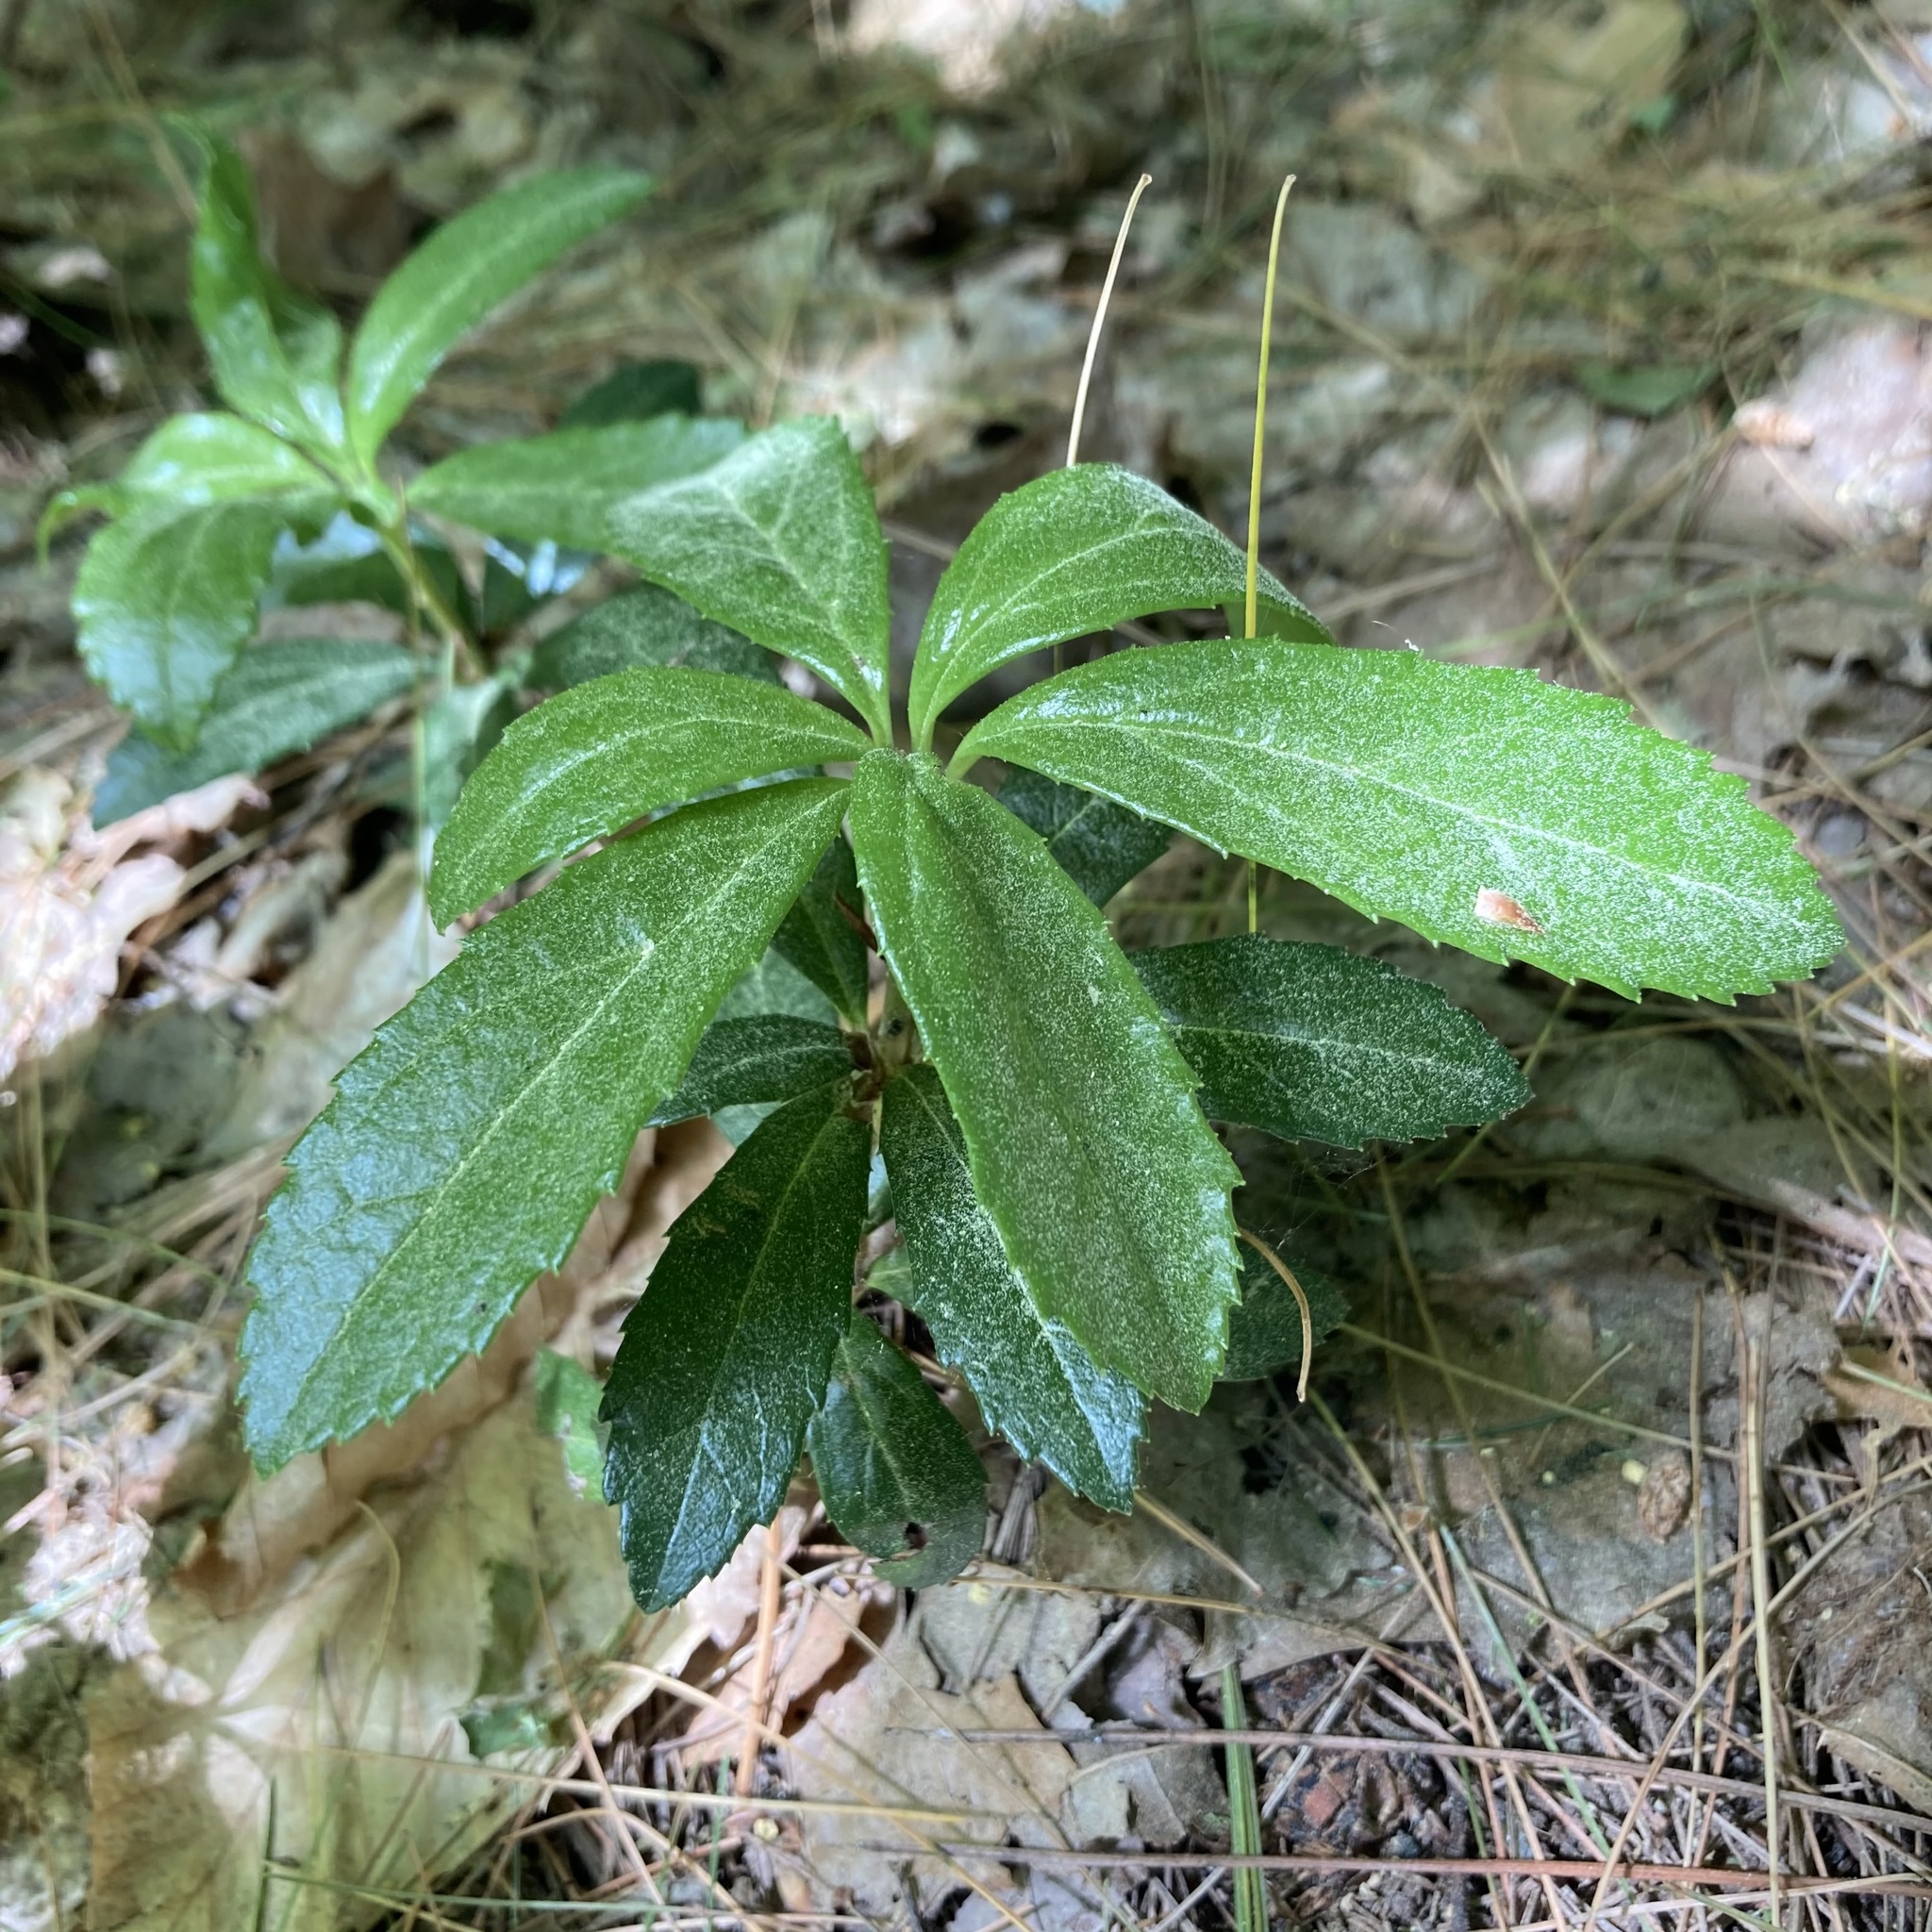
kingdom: Plantae
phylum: Tracheophyta
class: Magnoliopsida
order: Ericales
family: Ericaceae
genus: Chimaphila
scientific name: Chimaphila umbellata
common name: Pipsissewa
